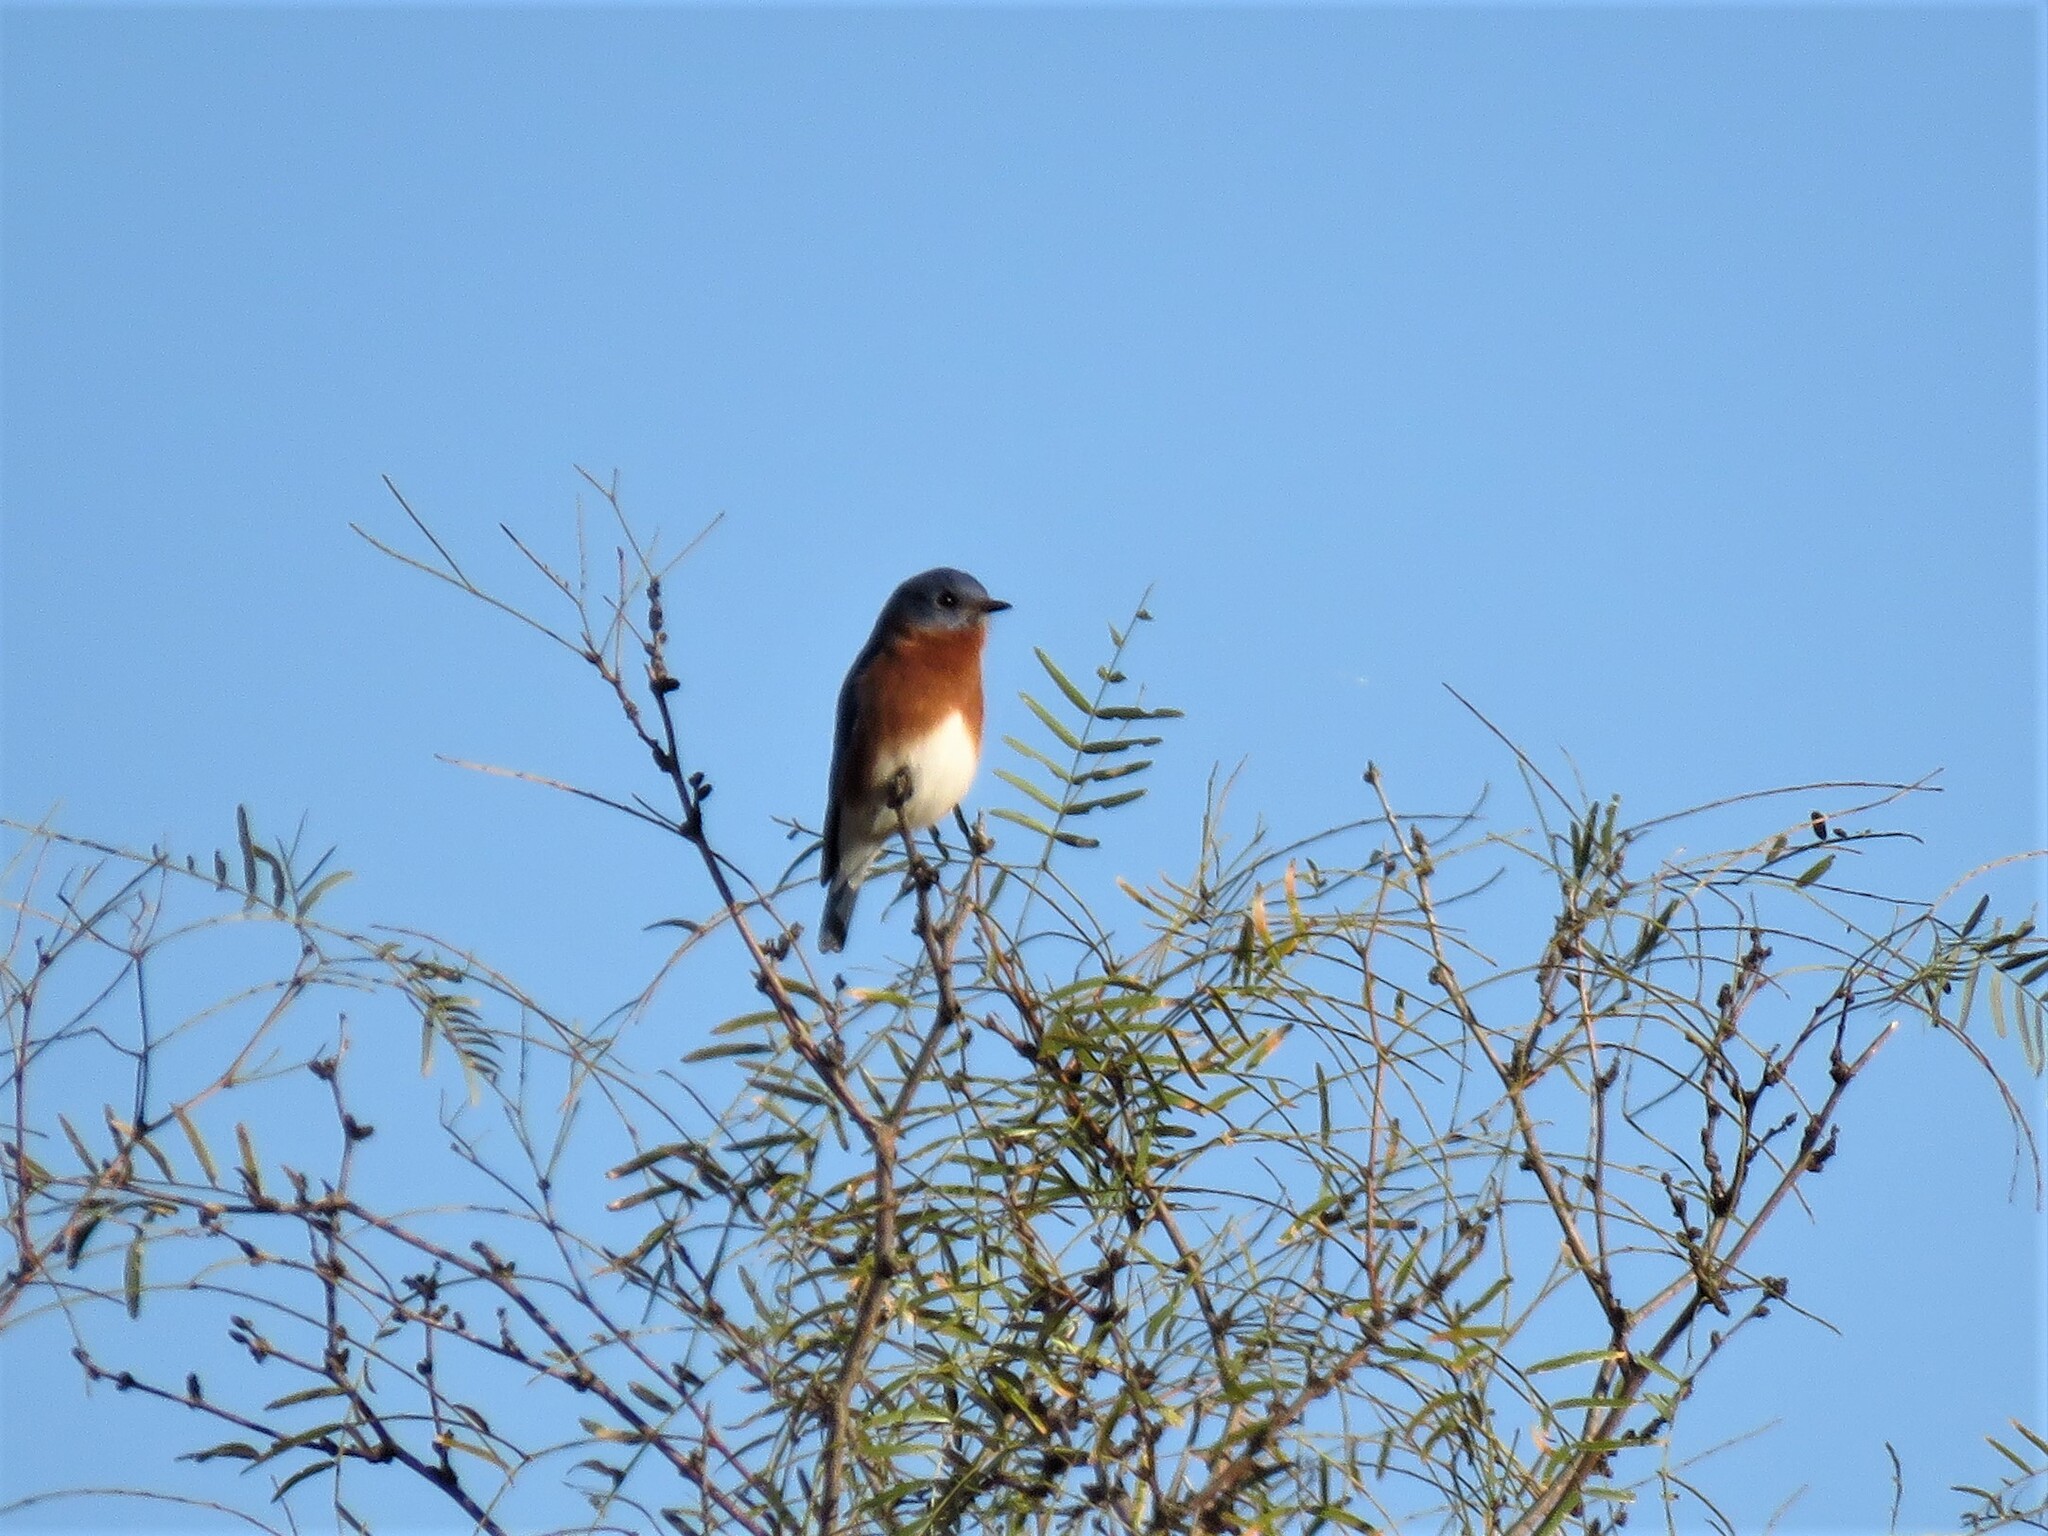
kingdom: Animalia
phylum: Chordata
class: Aves
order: Passeriformes
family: Turdidae
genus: Sialia
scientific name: Sialia sialis
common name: Eastern bluebird
